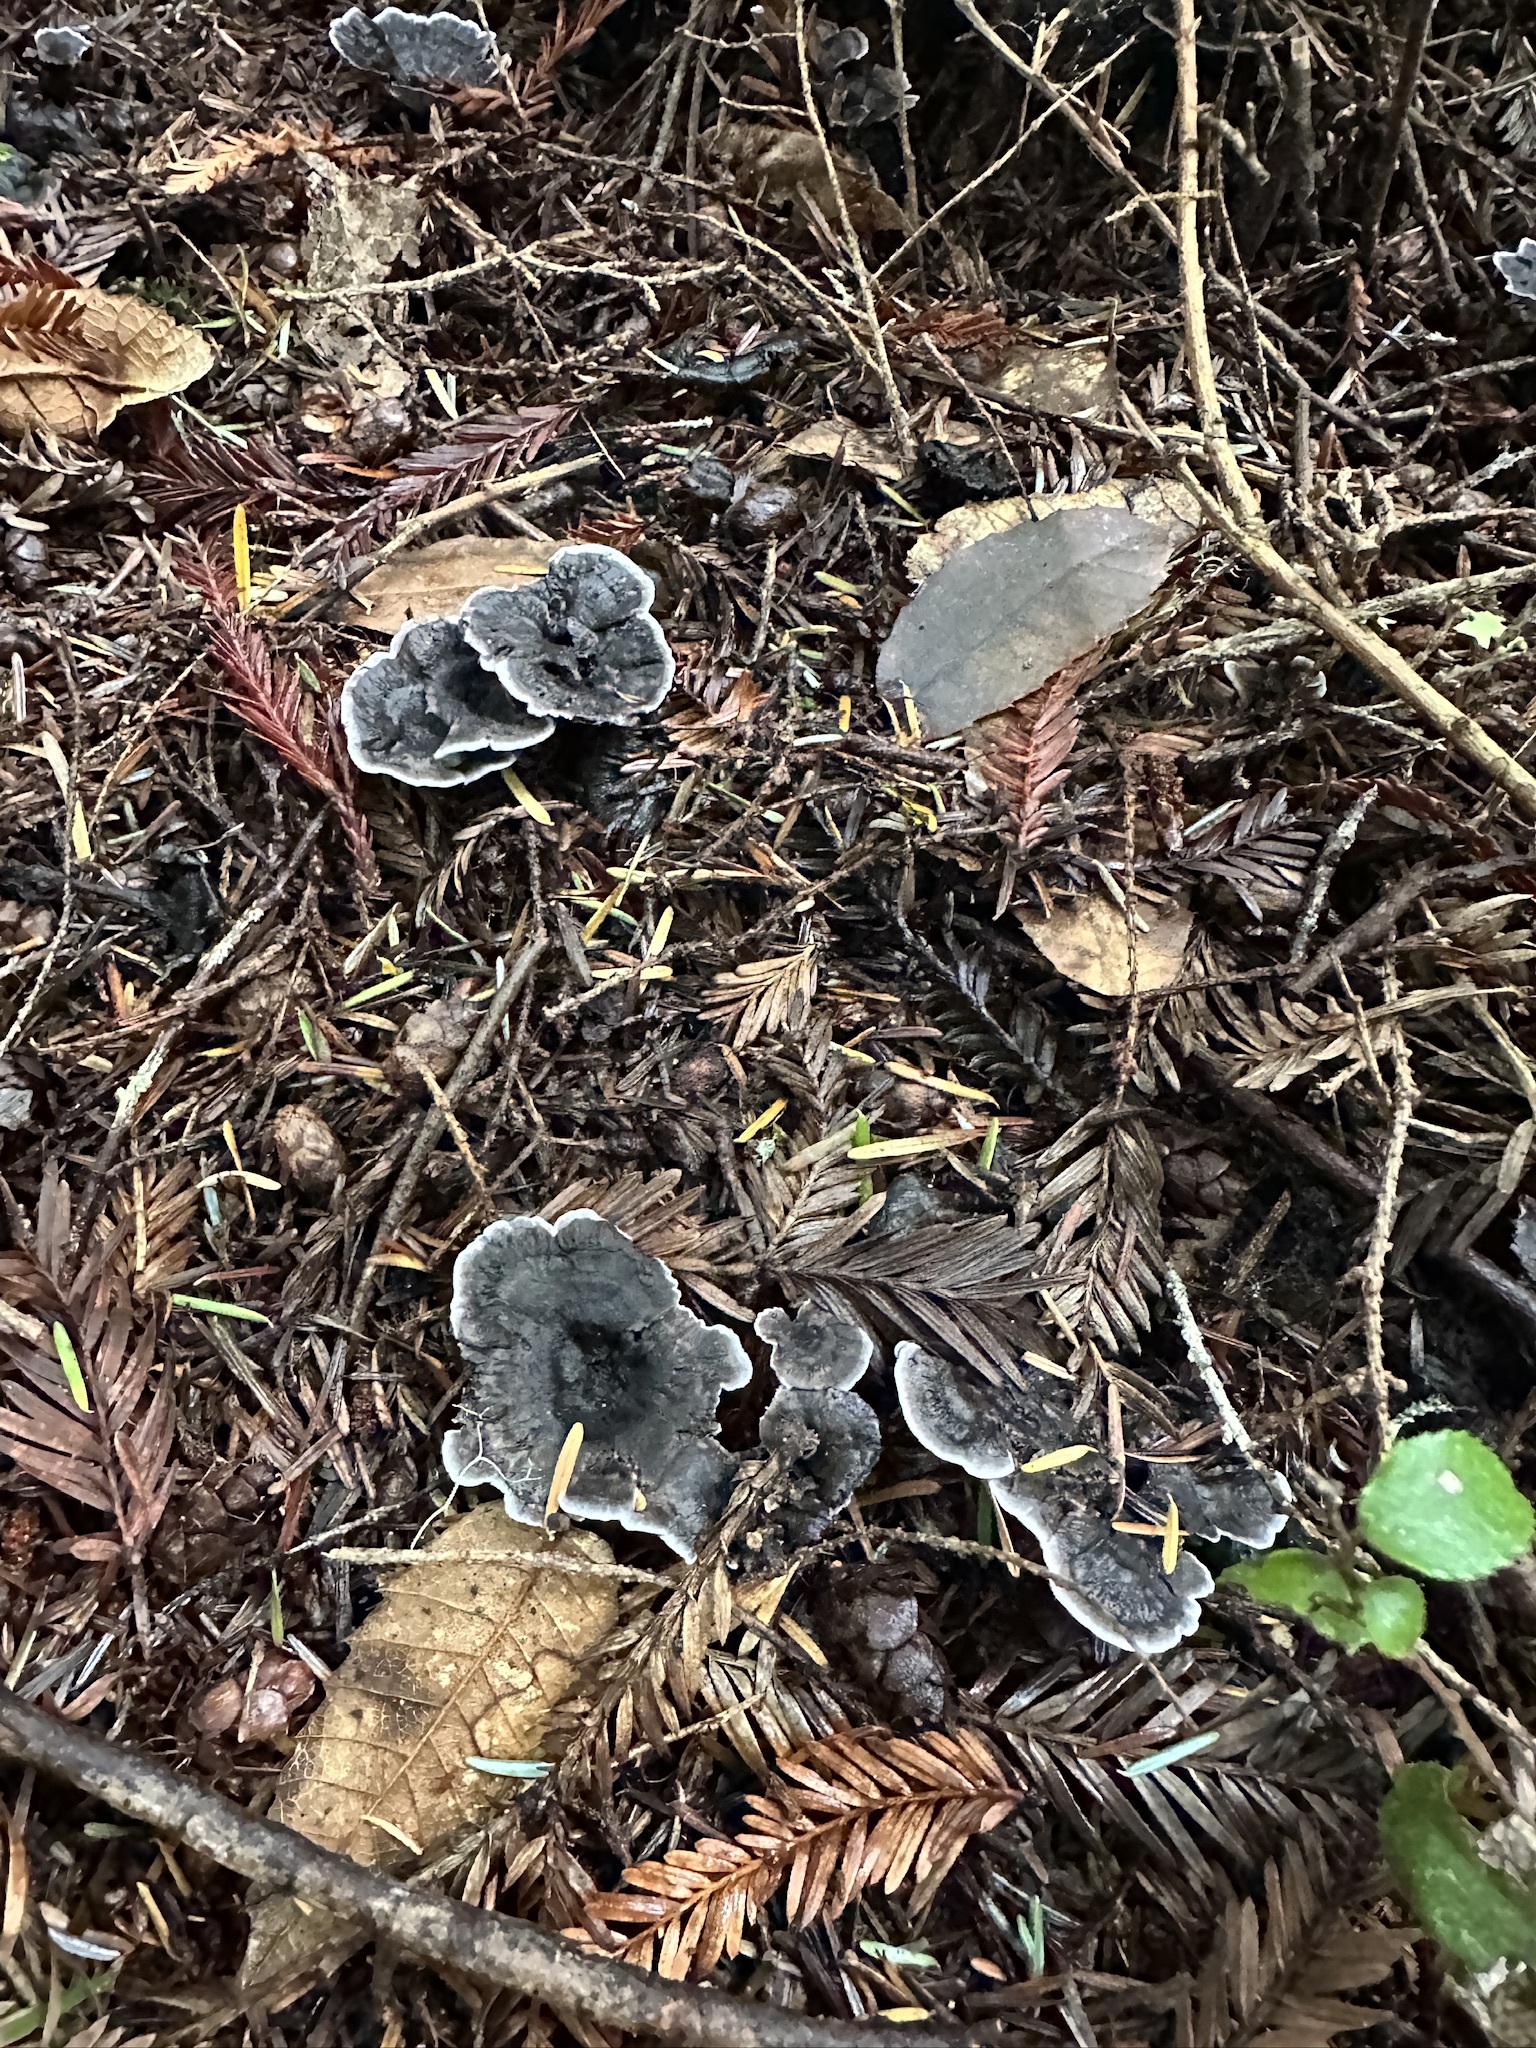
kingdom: Fungi
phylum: Basidiomycota
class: Agaricomycetes
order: Thelephorales
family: Thelephoraceae
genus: Phellodon
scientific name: Phellodon atratus
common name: Blue-black tooth
